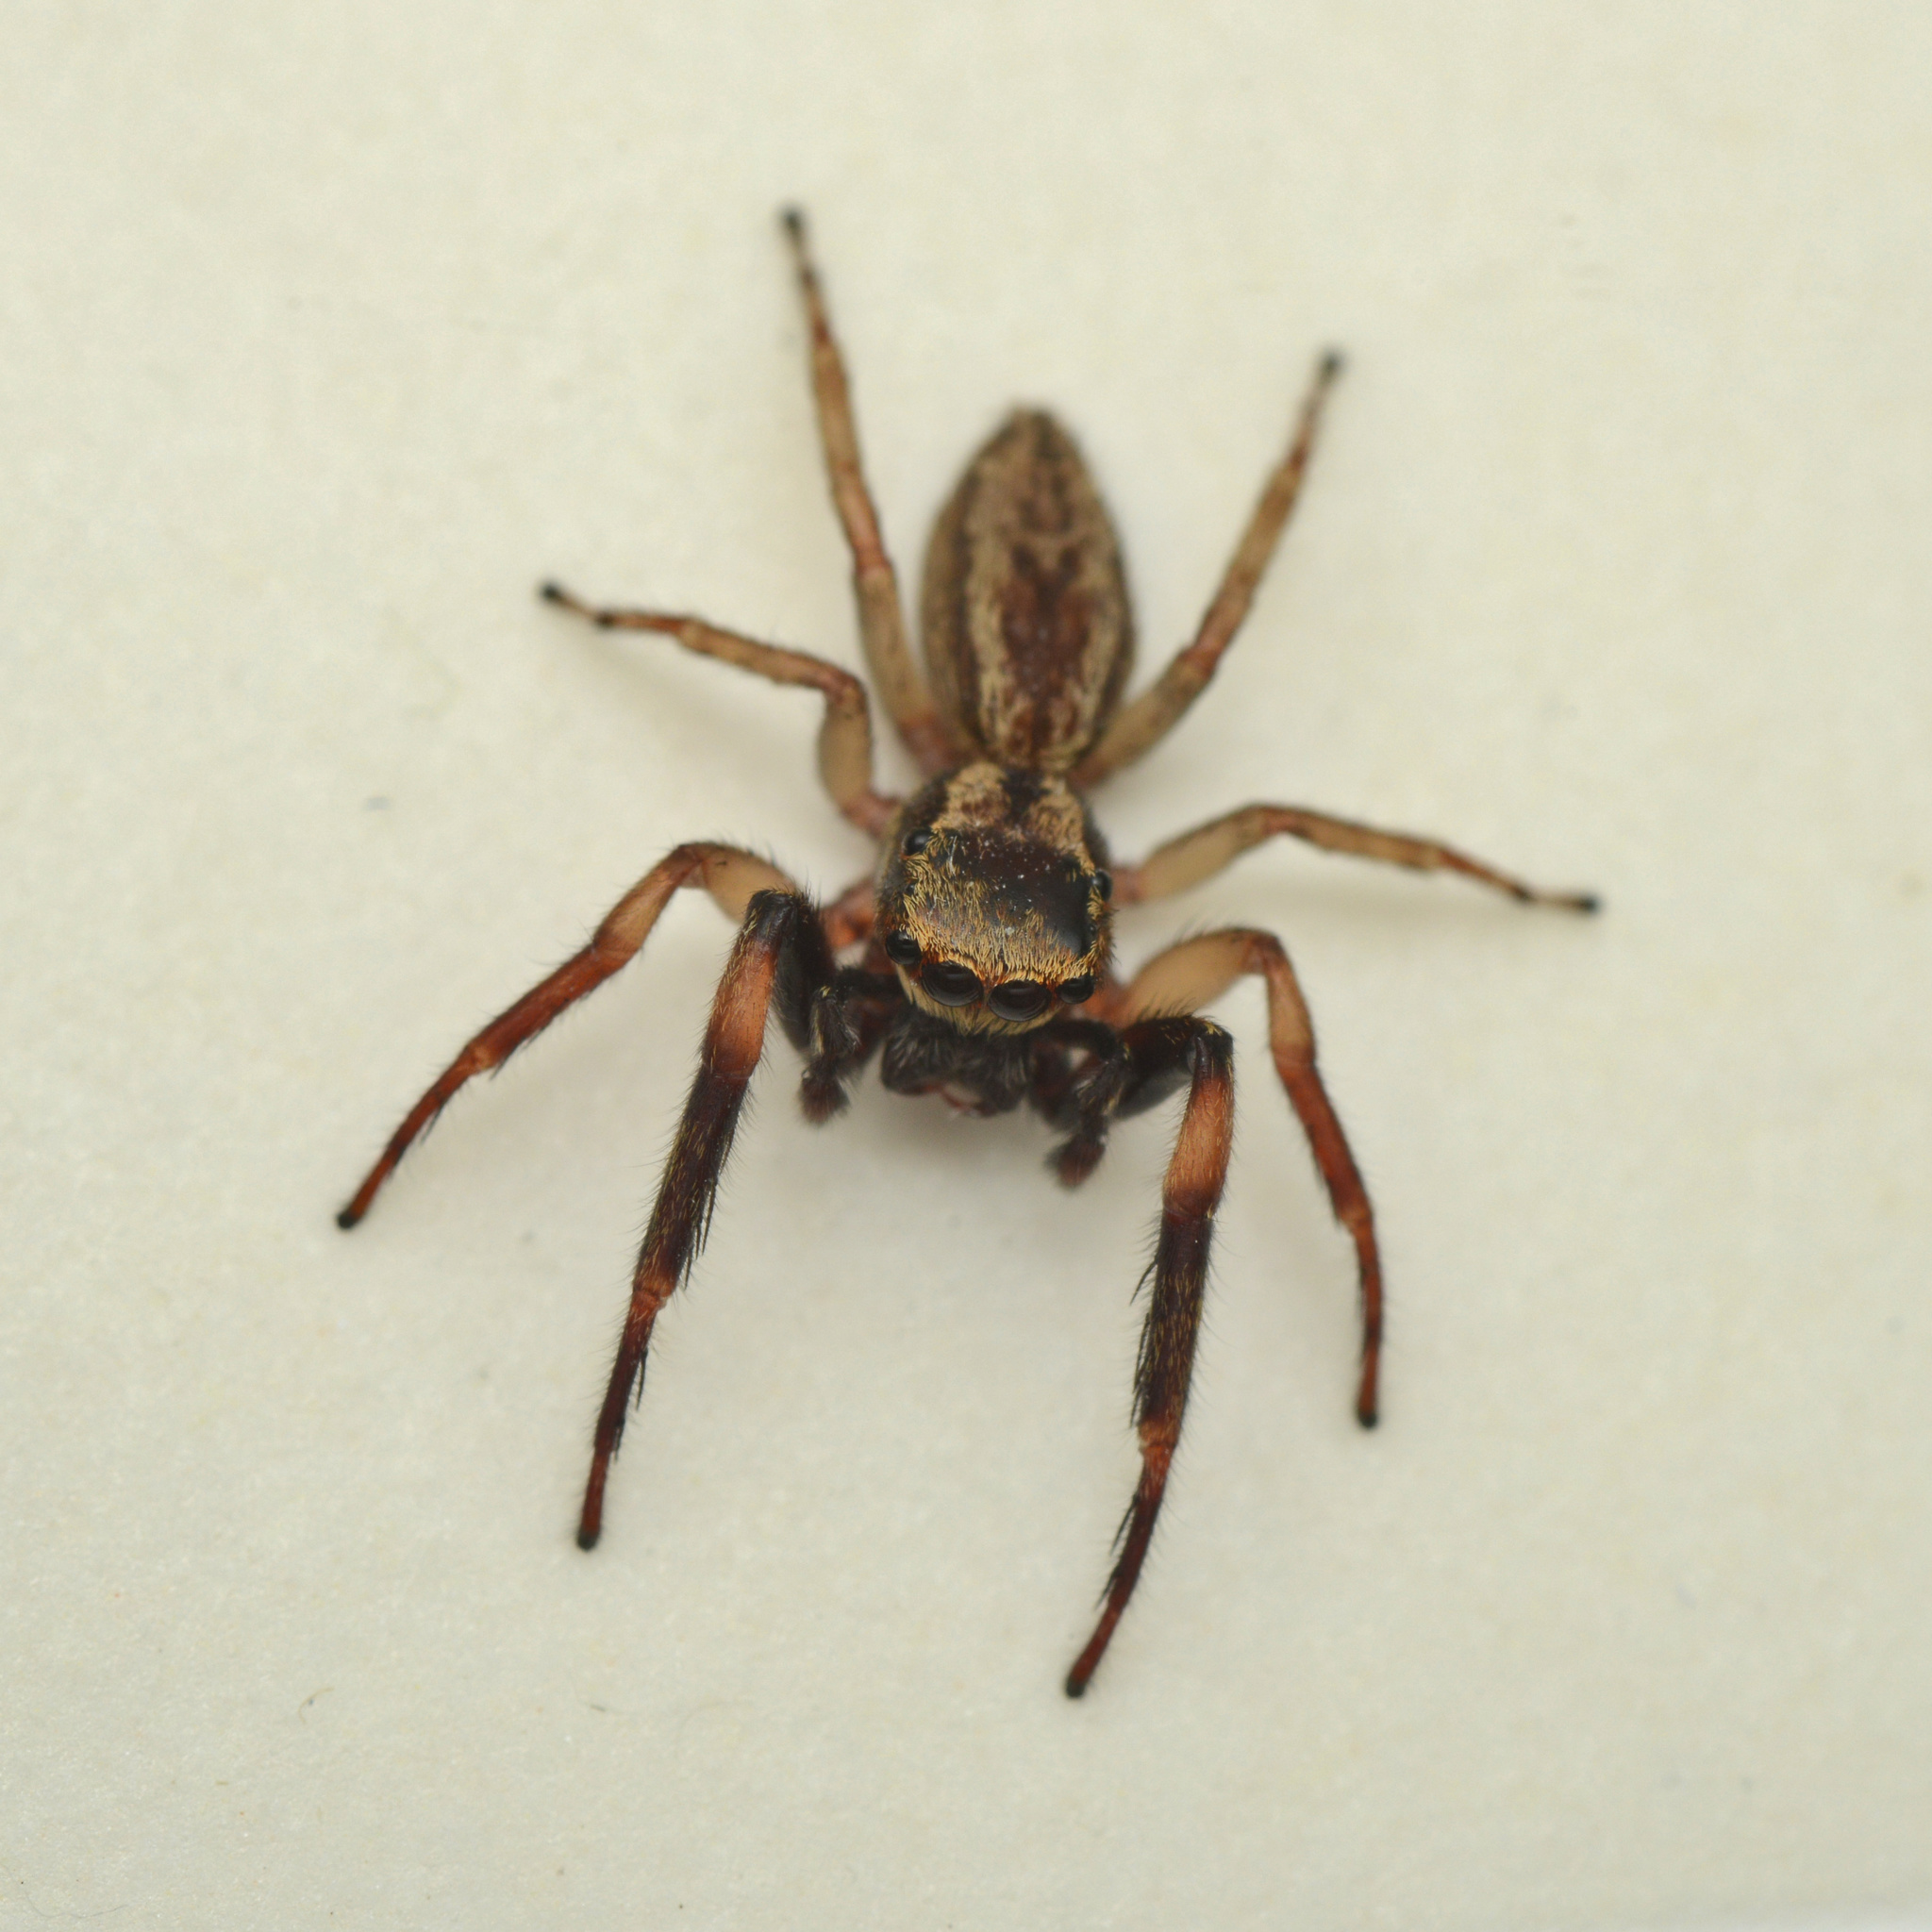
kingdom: Animalia
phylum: Arthropoda
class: Arachnida
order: Araneae
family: Salticidae
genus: Trite
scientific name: Trite auricoma
